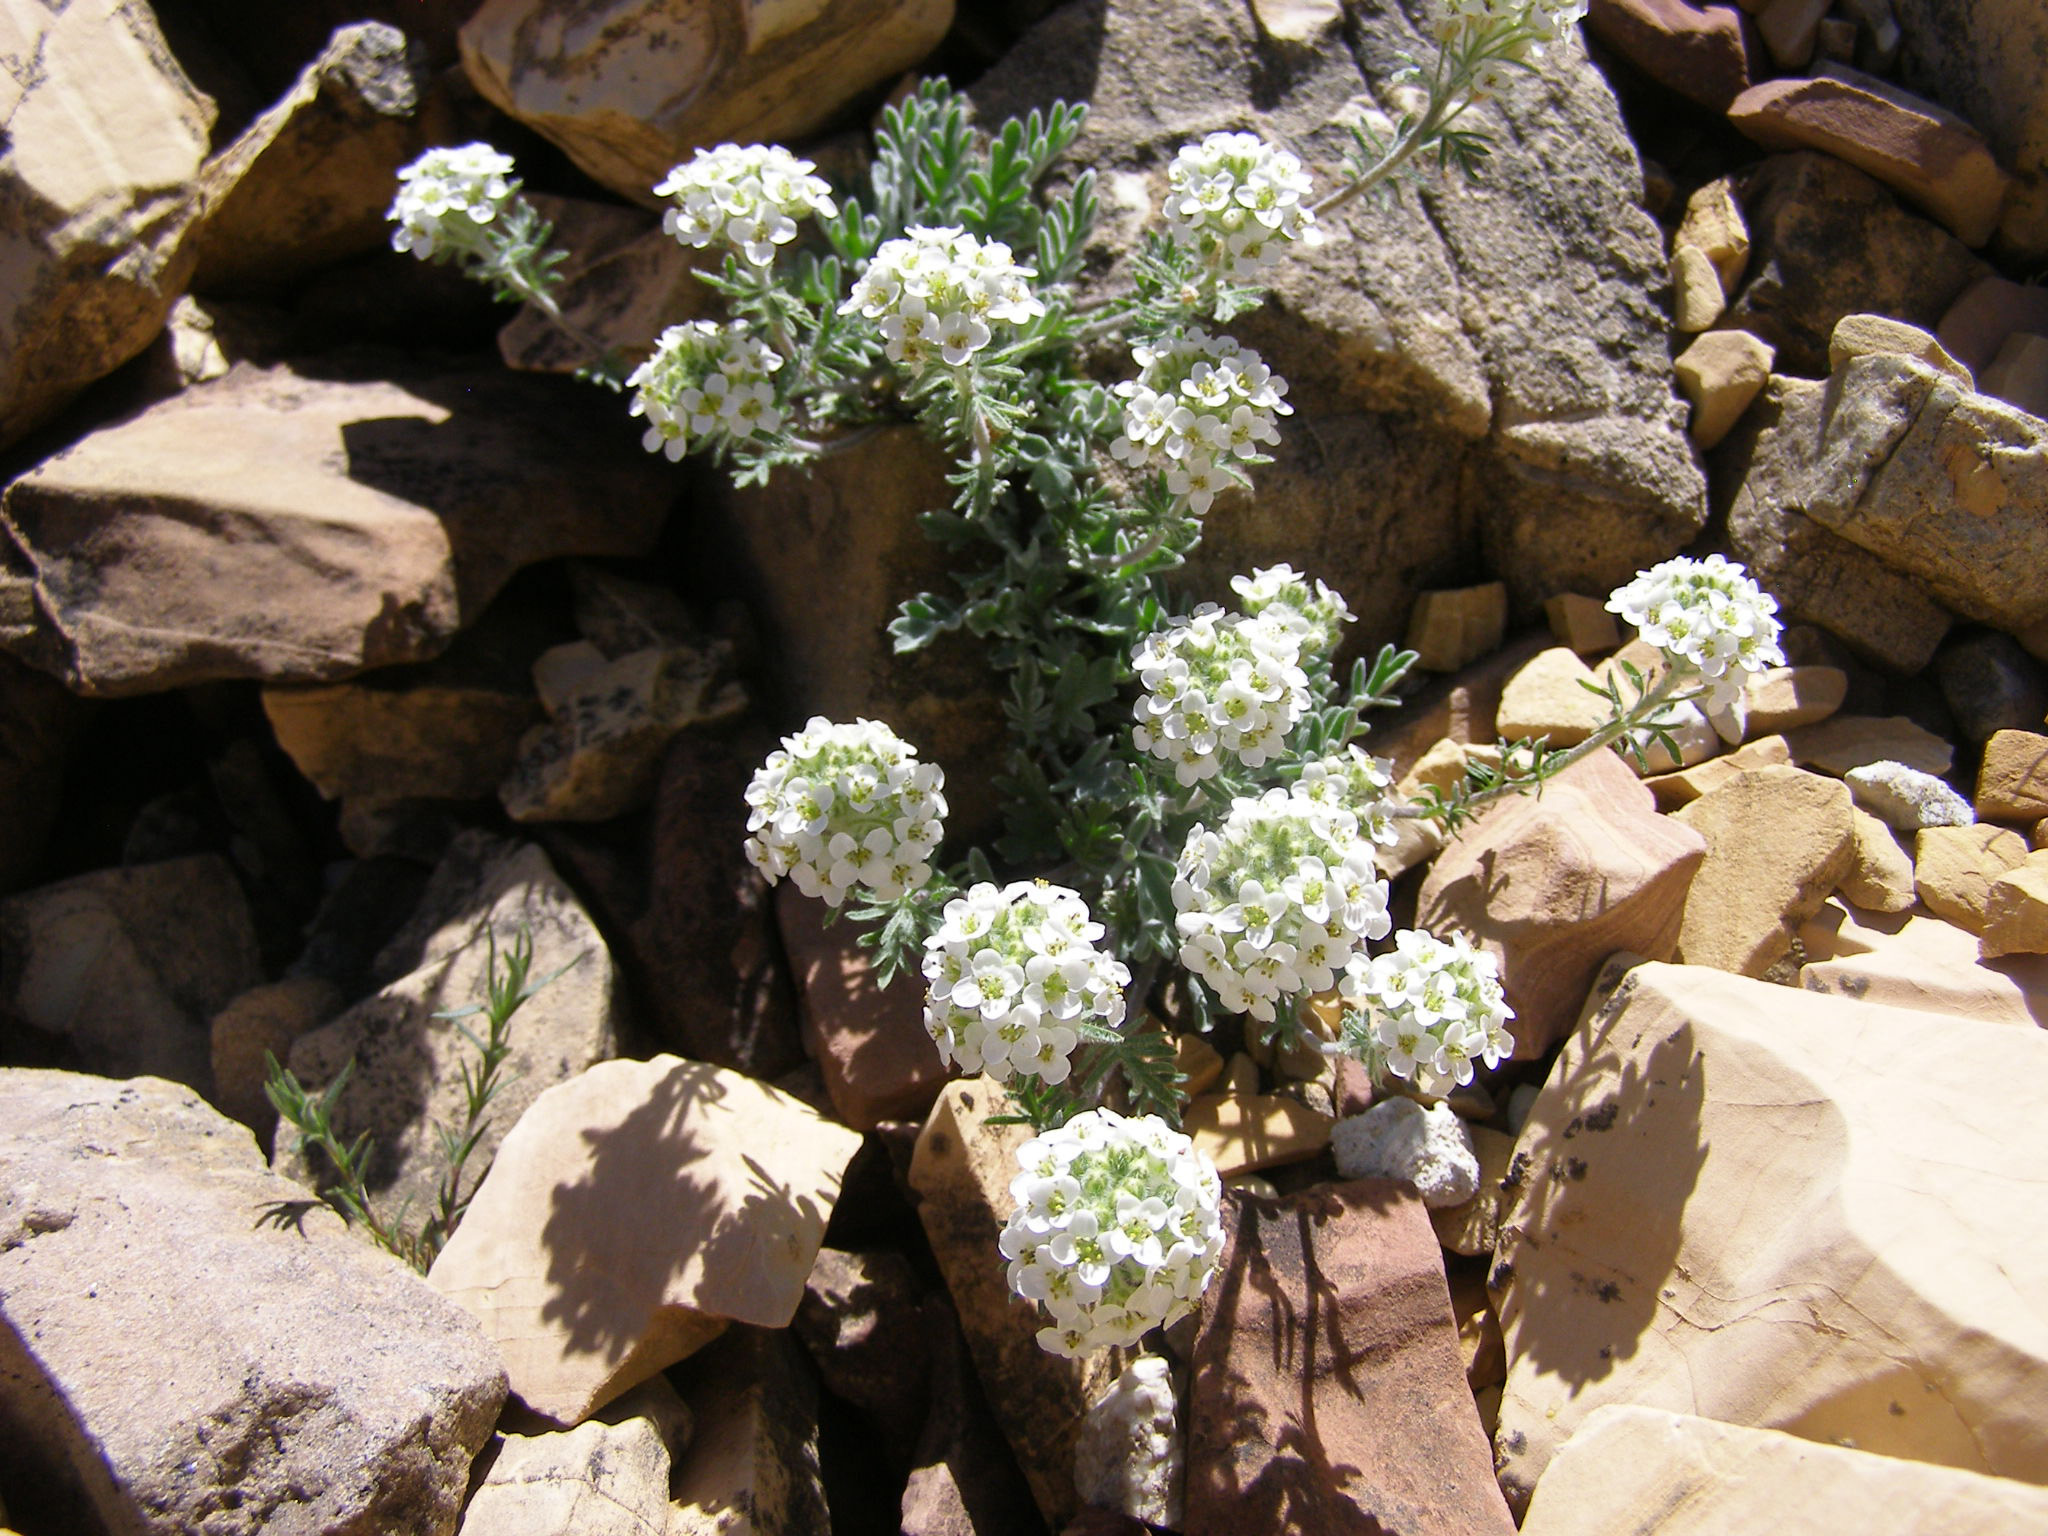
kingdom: Plantae
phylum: Tracheophyta
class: Magnoliopsida
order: Brassicales
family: Brassicaceae
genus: Smelowskia
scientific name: Smelowskia americana
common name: American false candytuft
